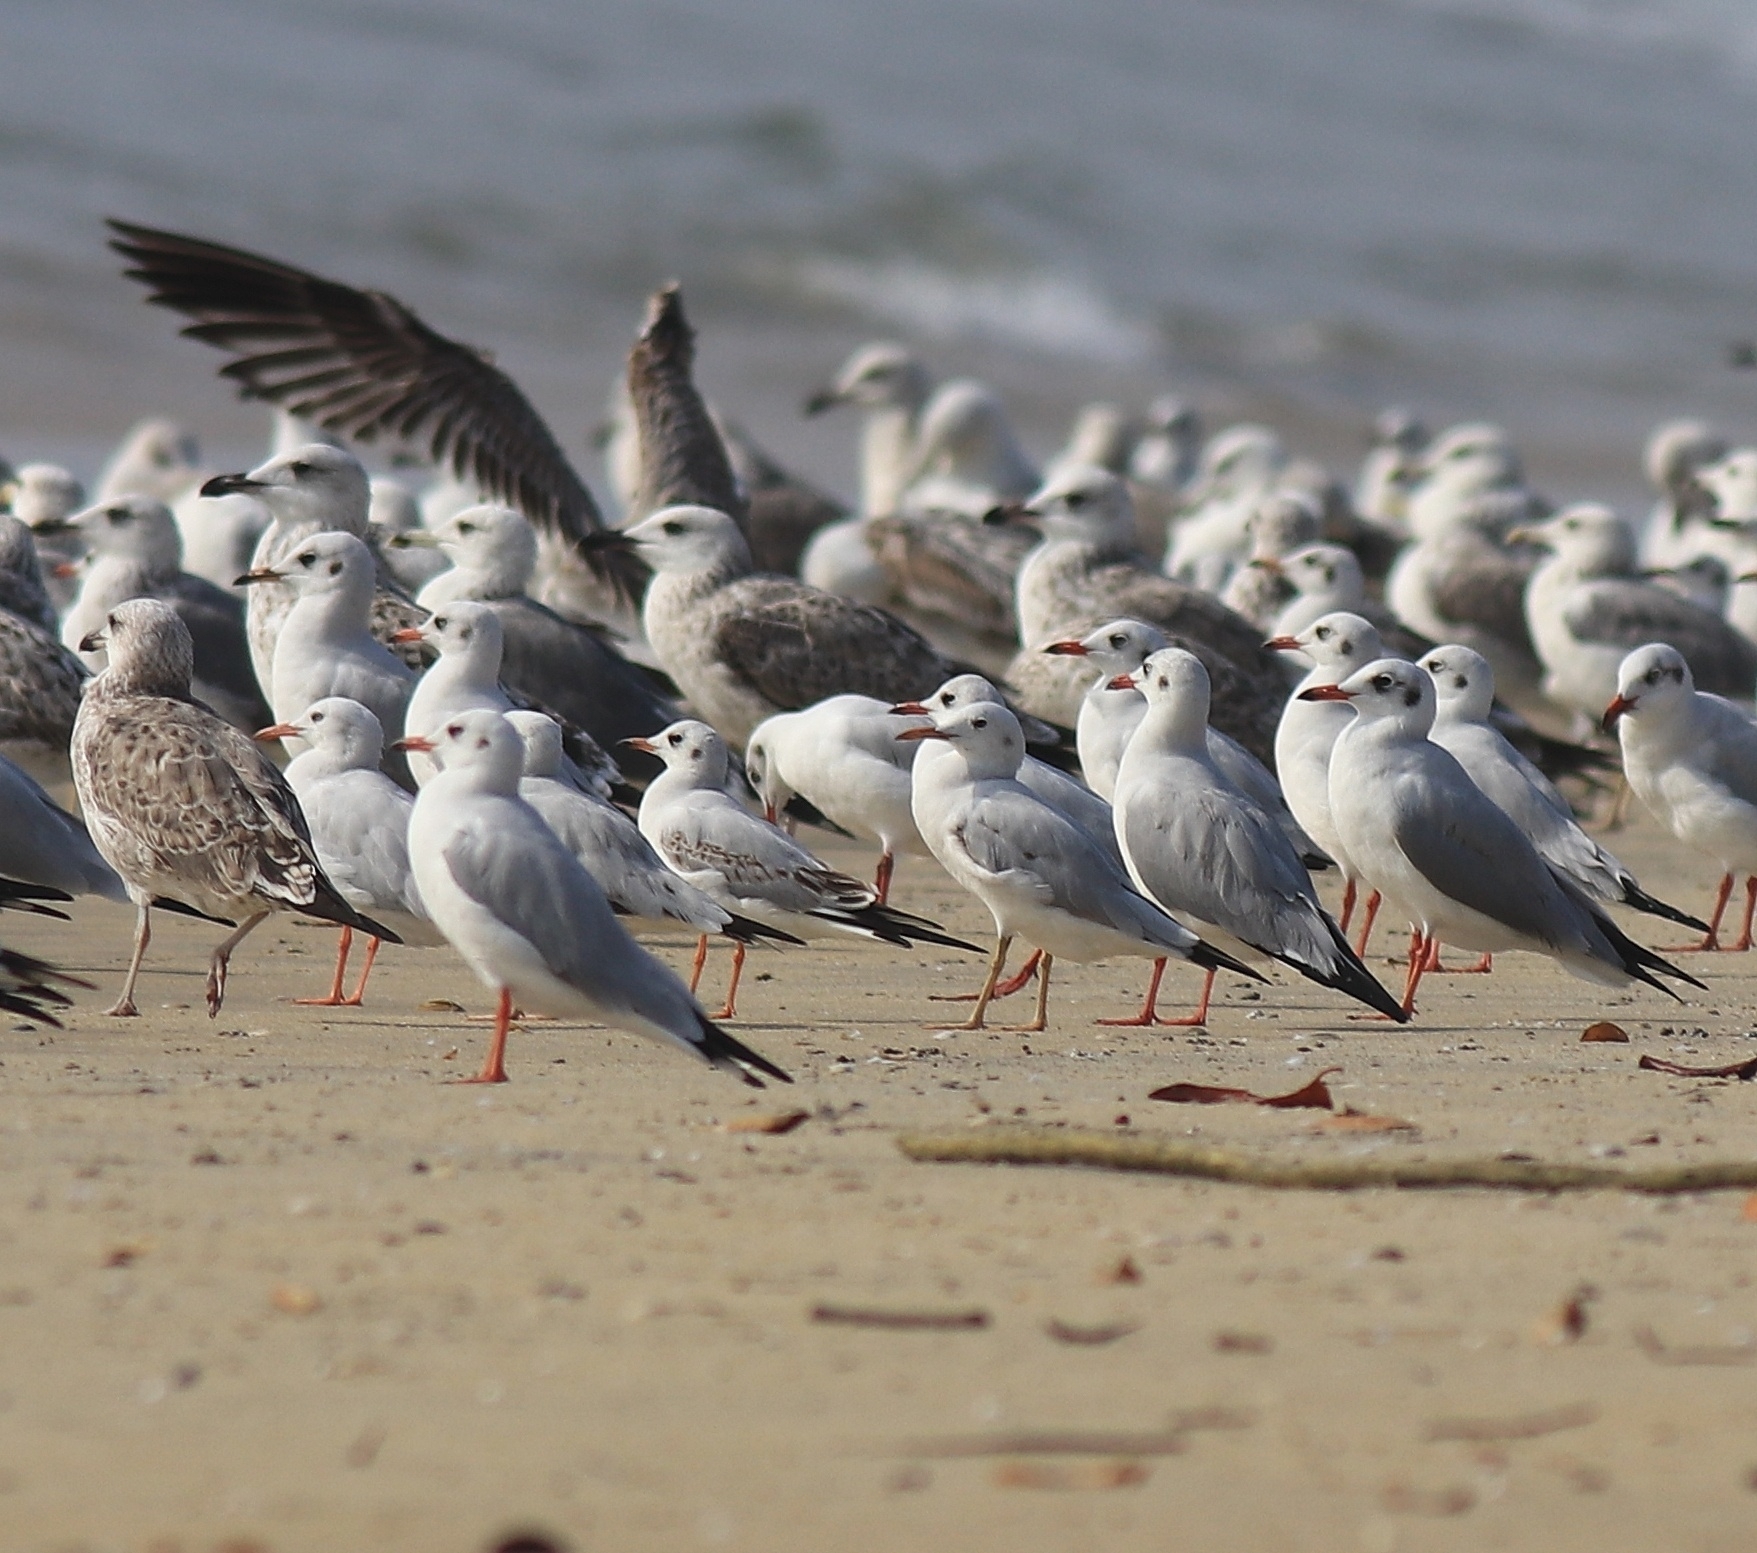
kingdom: Animalia
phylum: Chordata
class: Aves
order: Charadriiformes
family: Laridae
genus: Chroicocephalus
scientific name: Chroicocephalus genei
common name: Slender-billed gull
